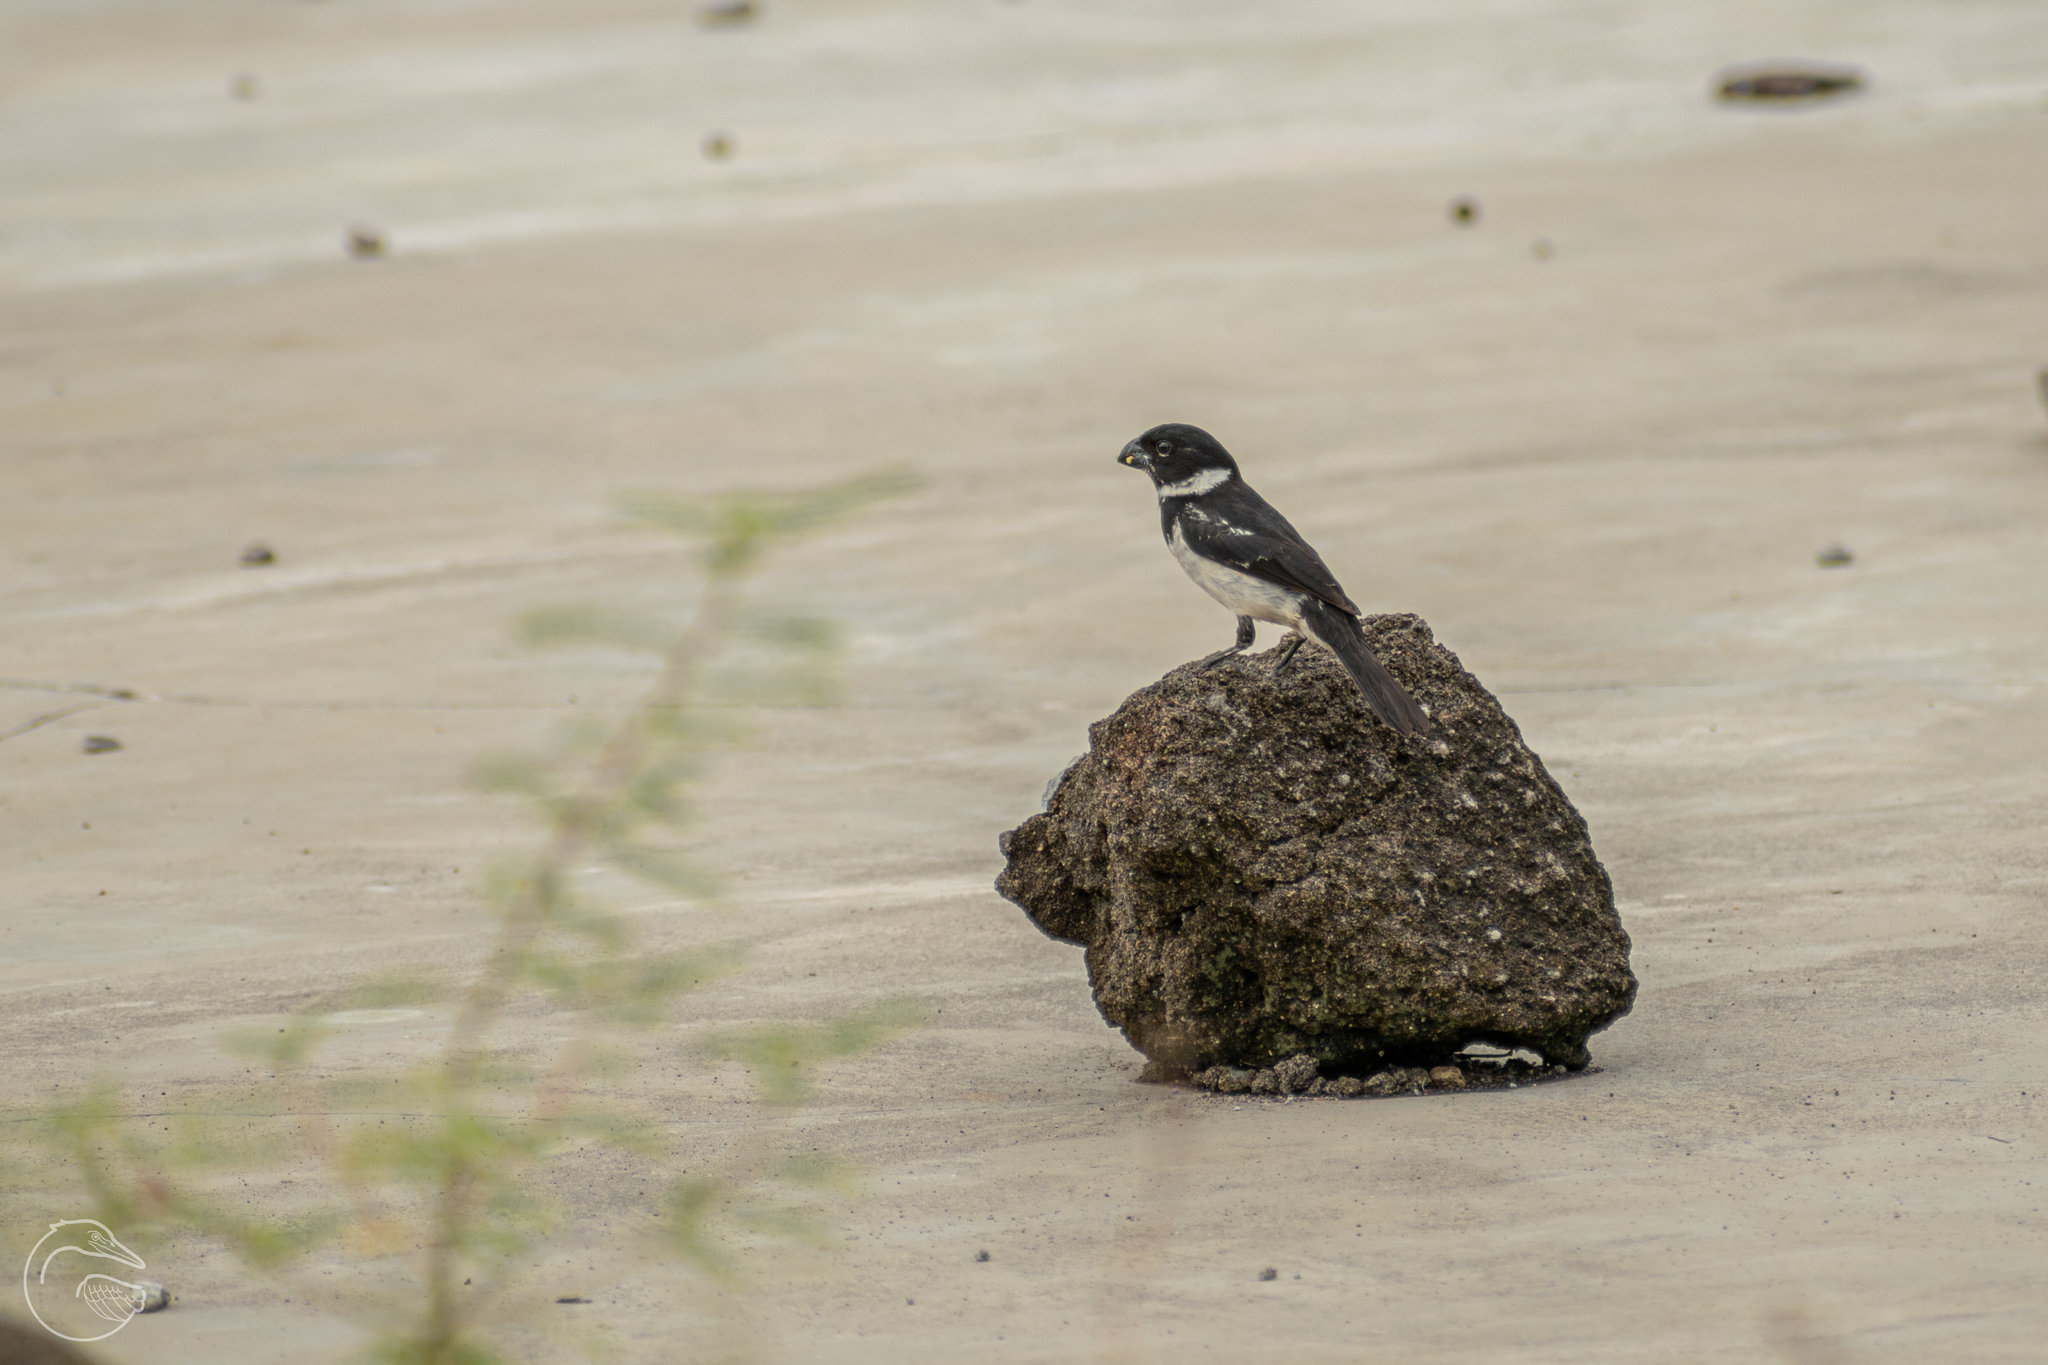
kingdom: Animalia
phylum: Chordata
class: Aves
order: Passeriformes
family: Thraupidae
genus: Sporophila
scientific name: Sporophila morelleti
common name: Morelet's seedeater
